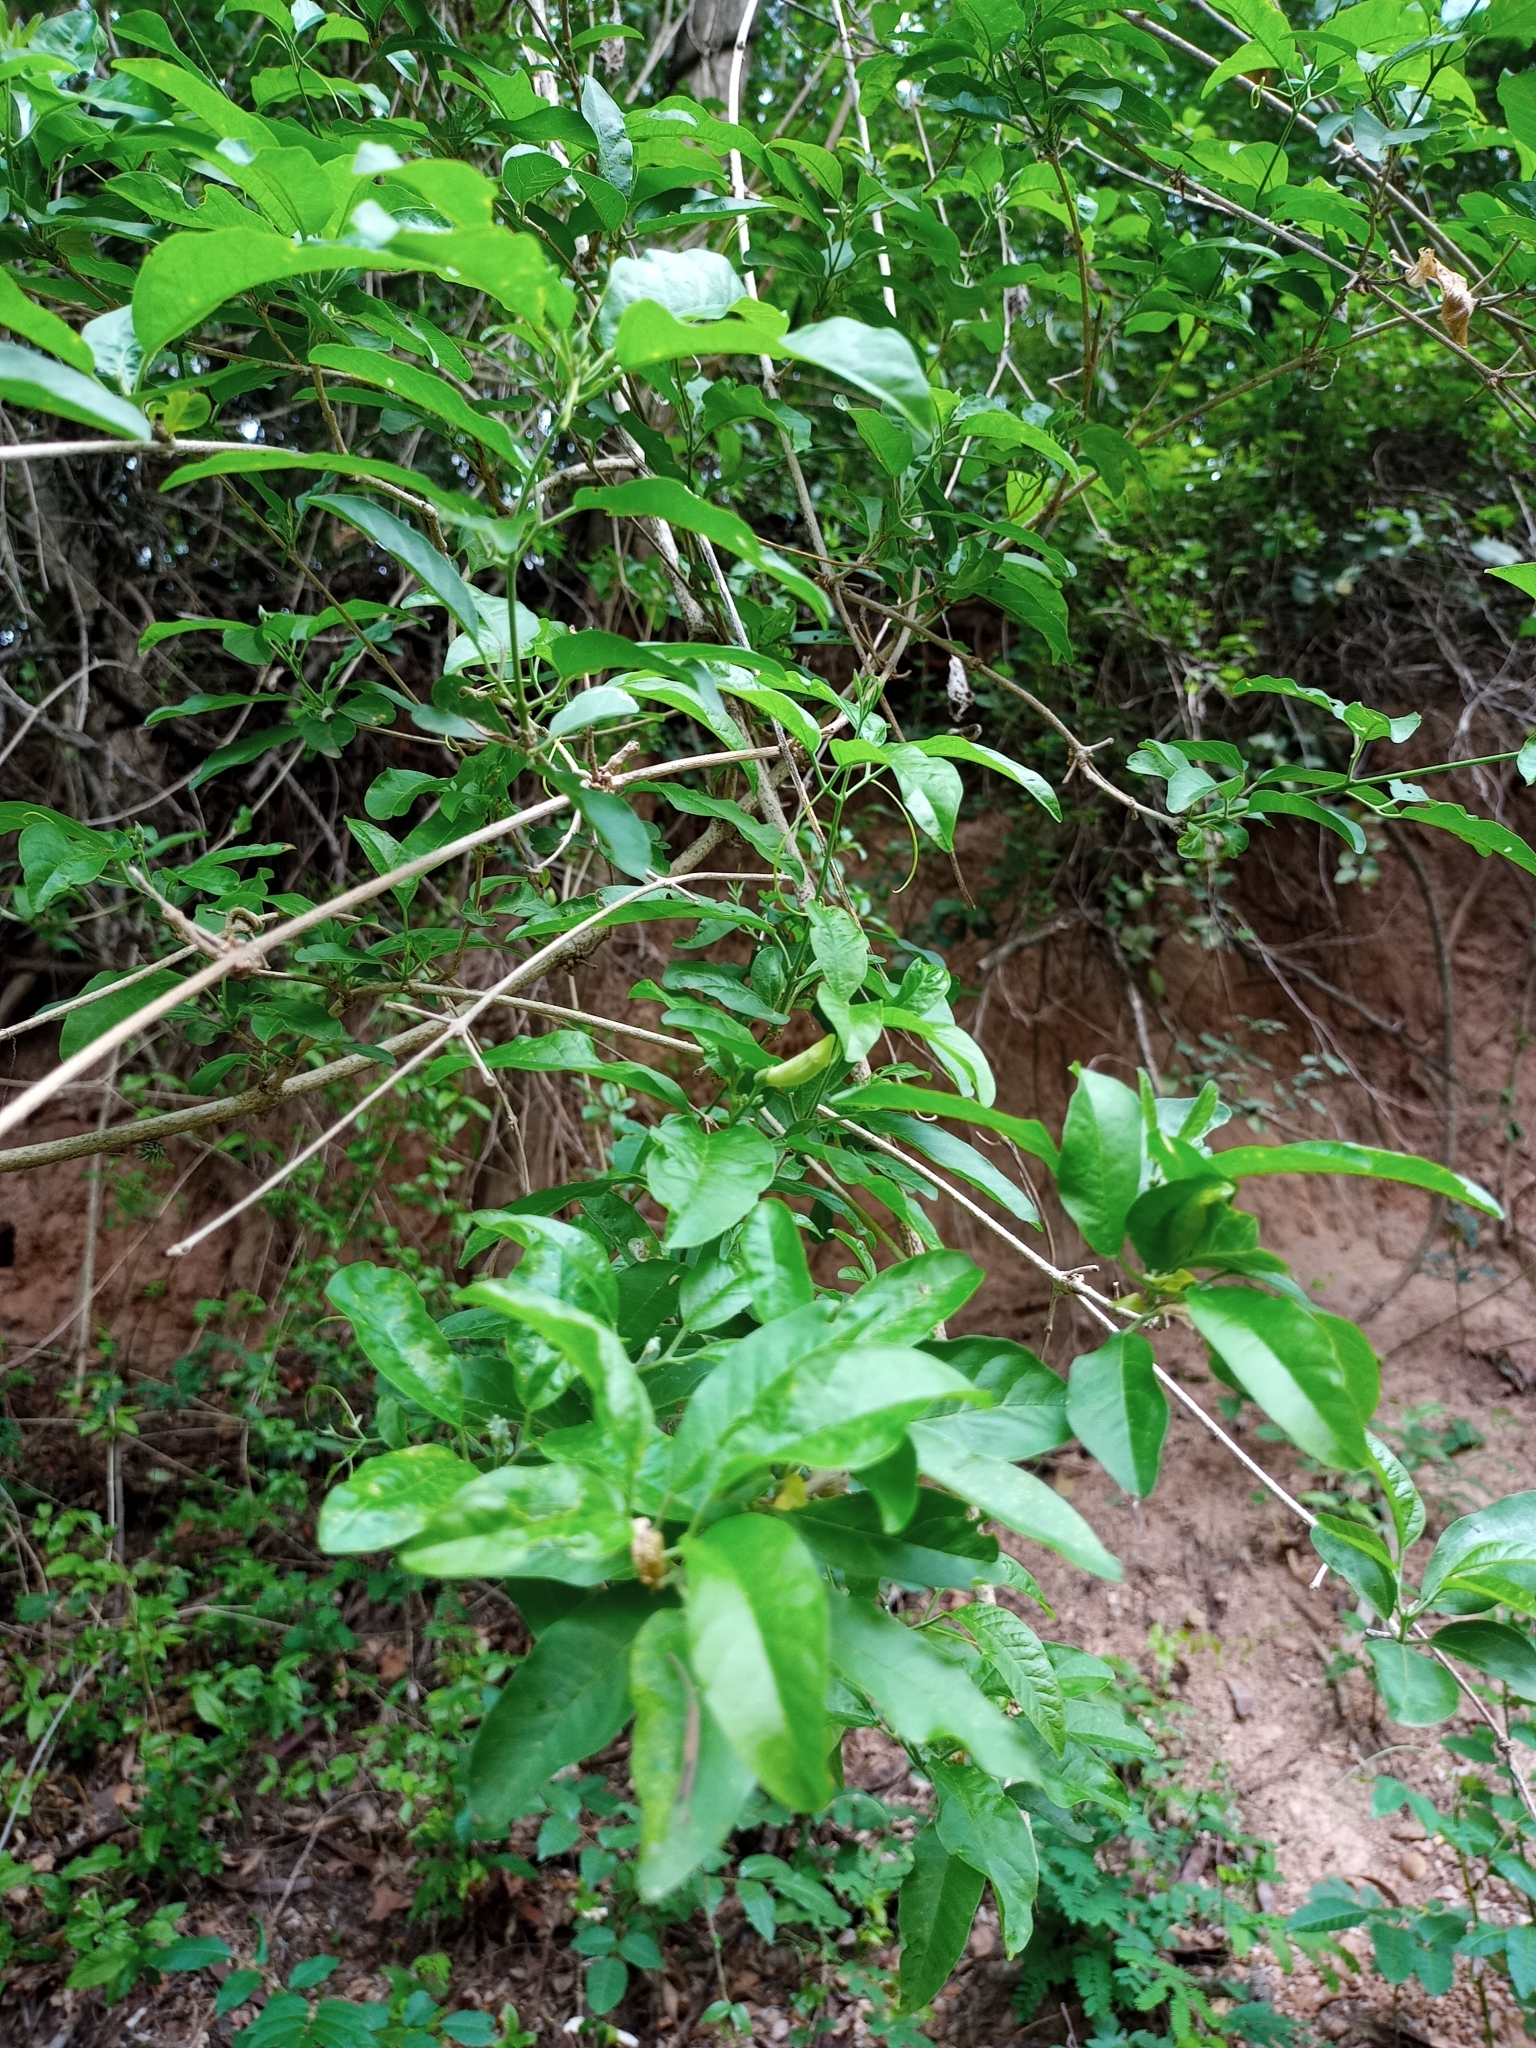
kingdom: Plantae
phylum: Tracheophyta
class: Magnoliopsida
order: Lamiales
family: Bignoniaceae
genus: Fridericia
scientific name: Fridericia truncata
